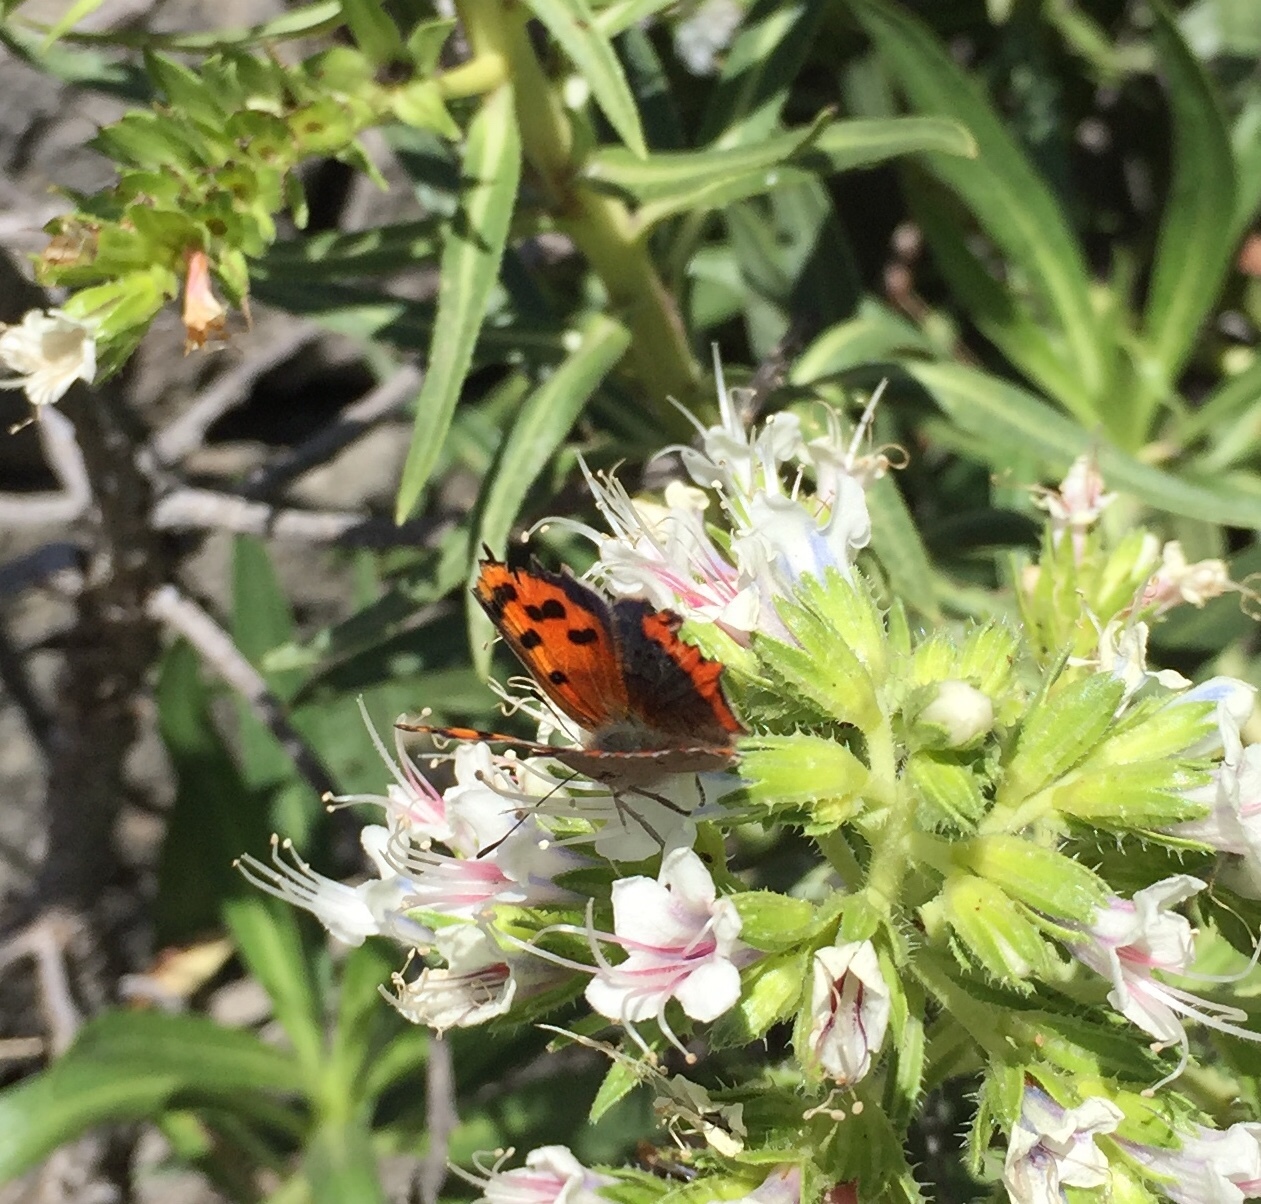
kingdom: Animalia
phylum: Arthropoda
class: Insecta
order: Lepidoptera
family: Lycaenidae
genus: Lycaena
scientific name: Lycaena phlaeas
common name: Small copper
